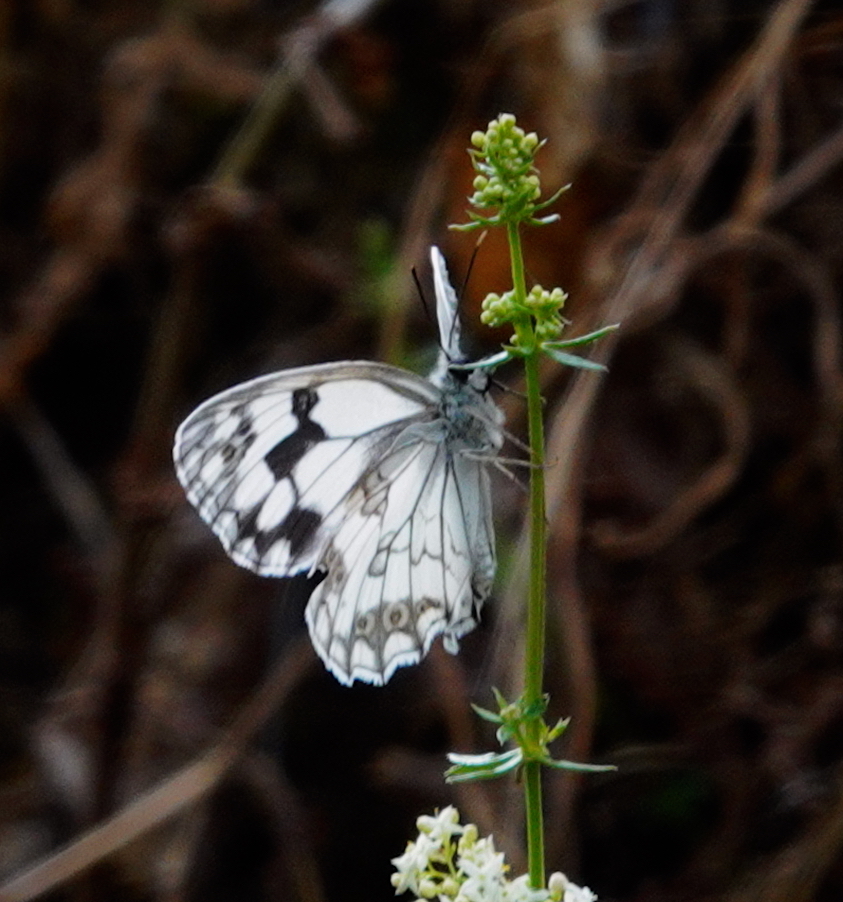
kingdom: Animalia
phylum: Arthropoda
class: Insecta
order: Lepidoptera
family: Nymphalidae
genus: Melanargia
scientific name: Melanargia lachesis
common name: Iberian marbled white
